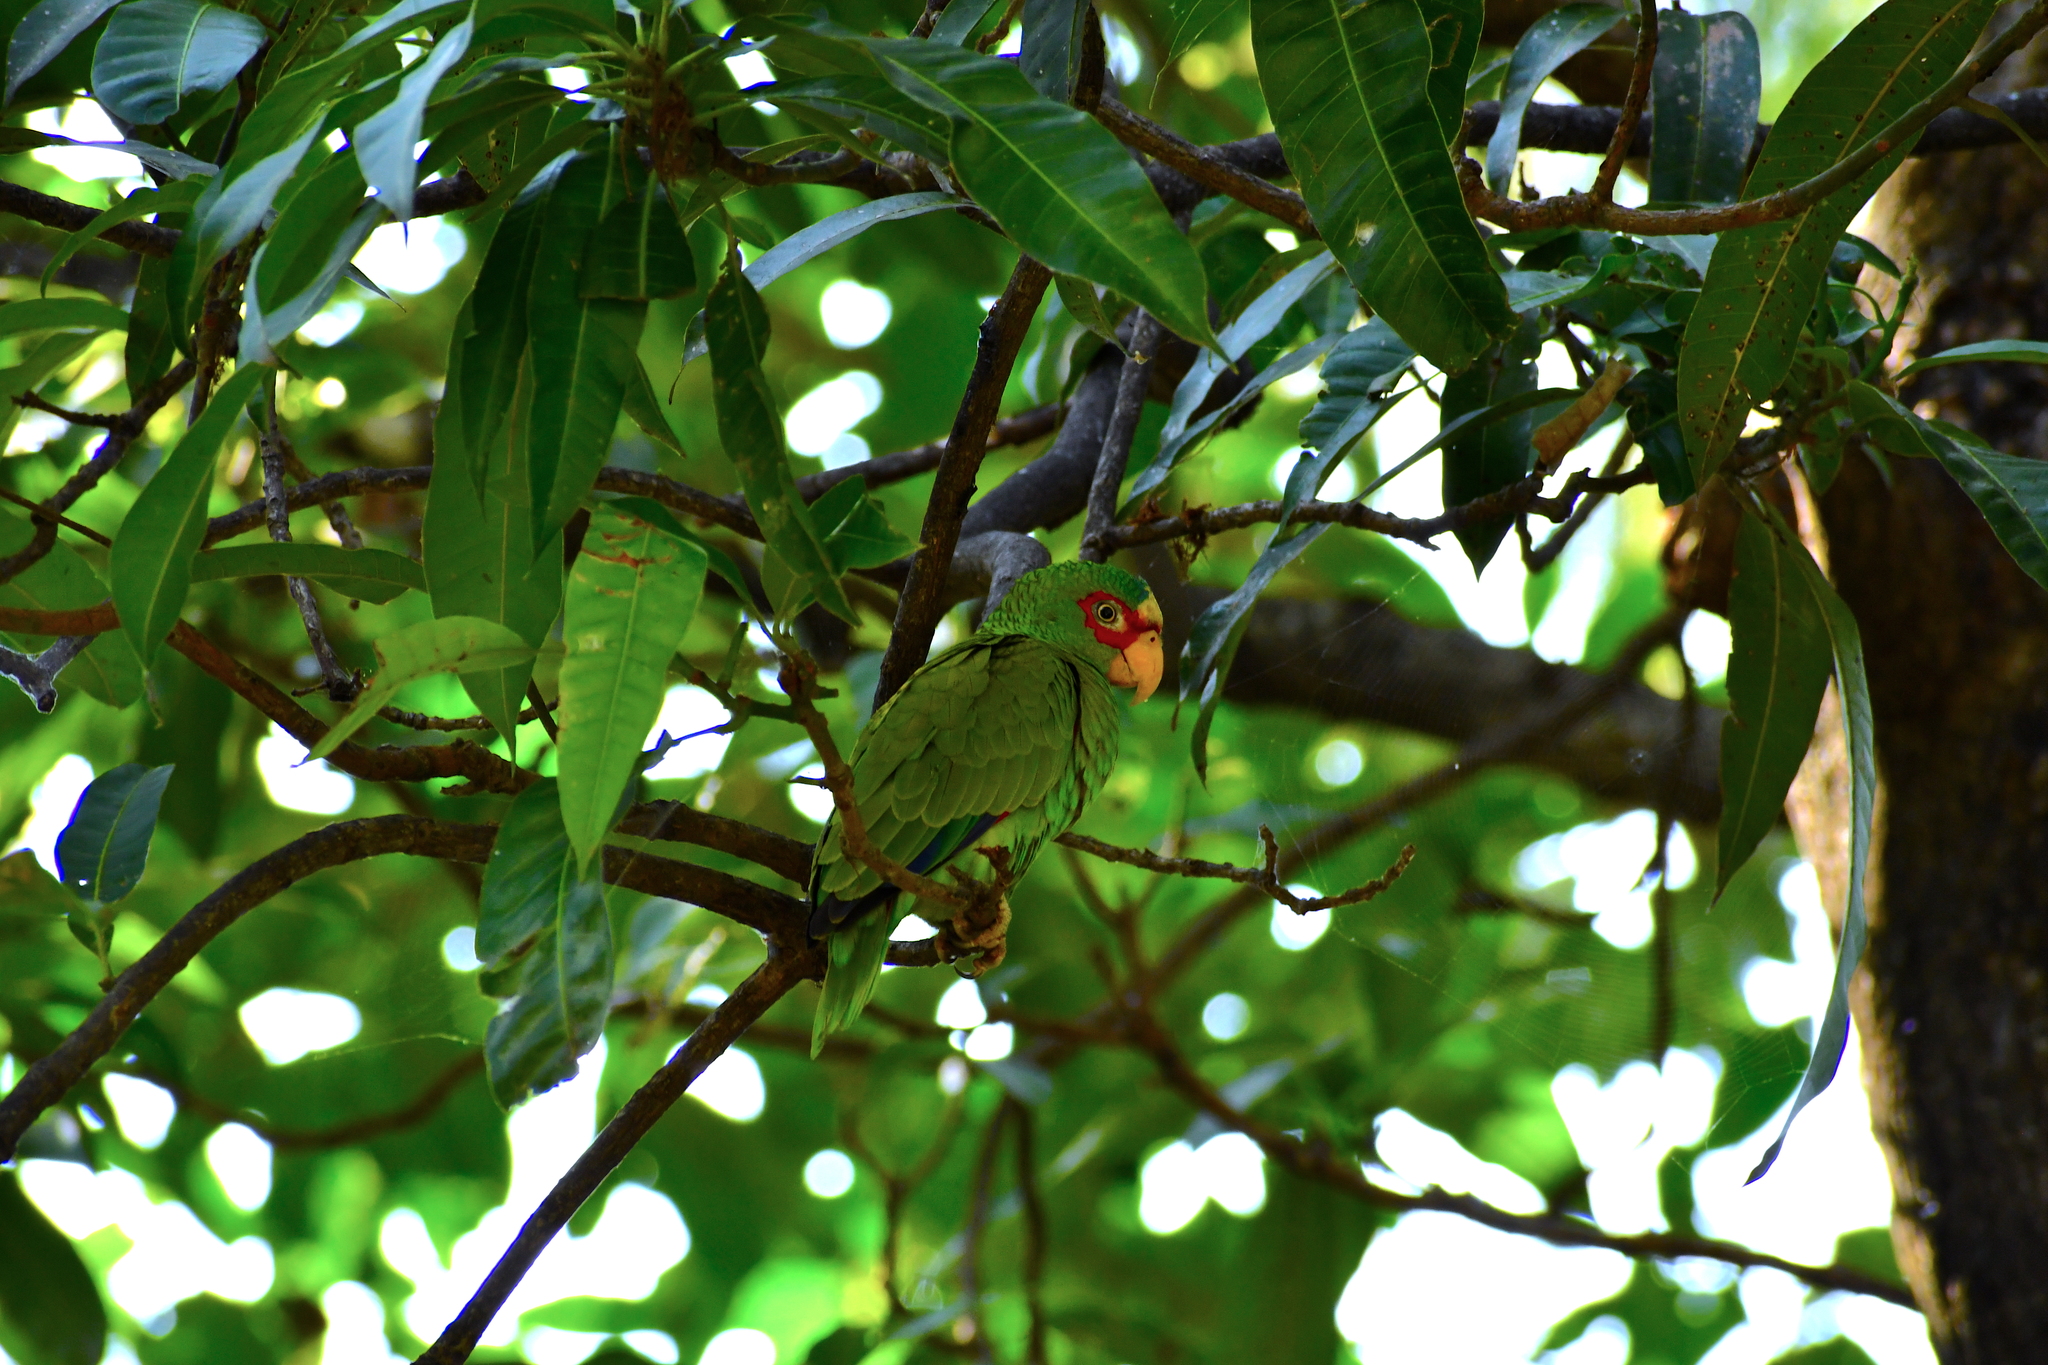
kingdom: Animalia
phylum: Chordata
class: Aves
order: Psittaciformes
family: Psittacidae
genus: Amazona
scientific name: Amazona albifrons
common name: White-fronted amazon
